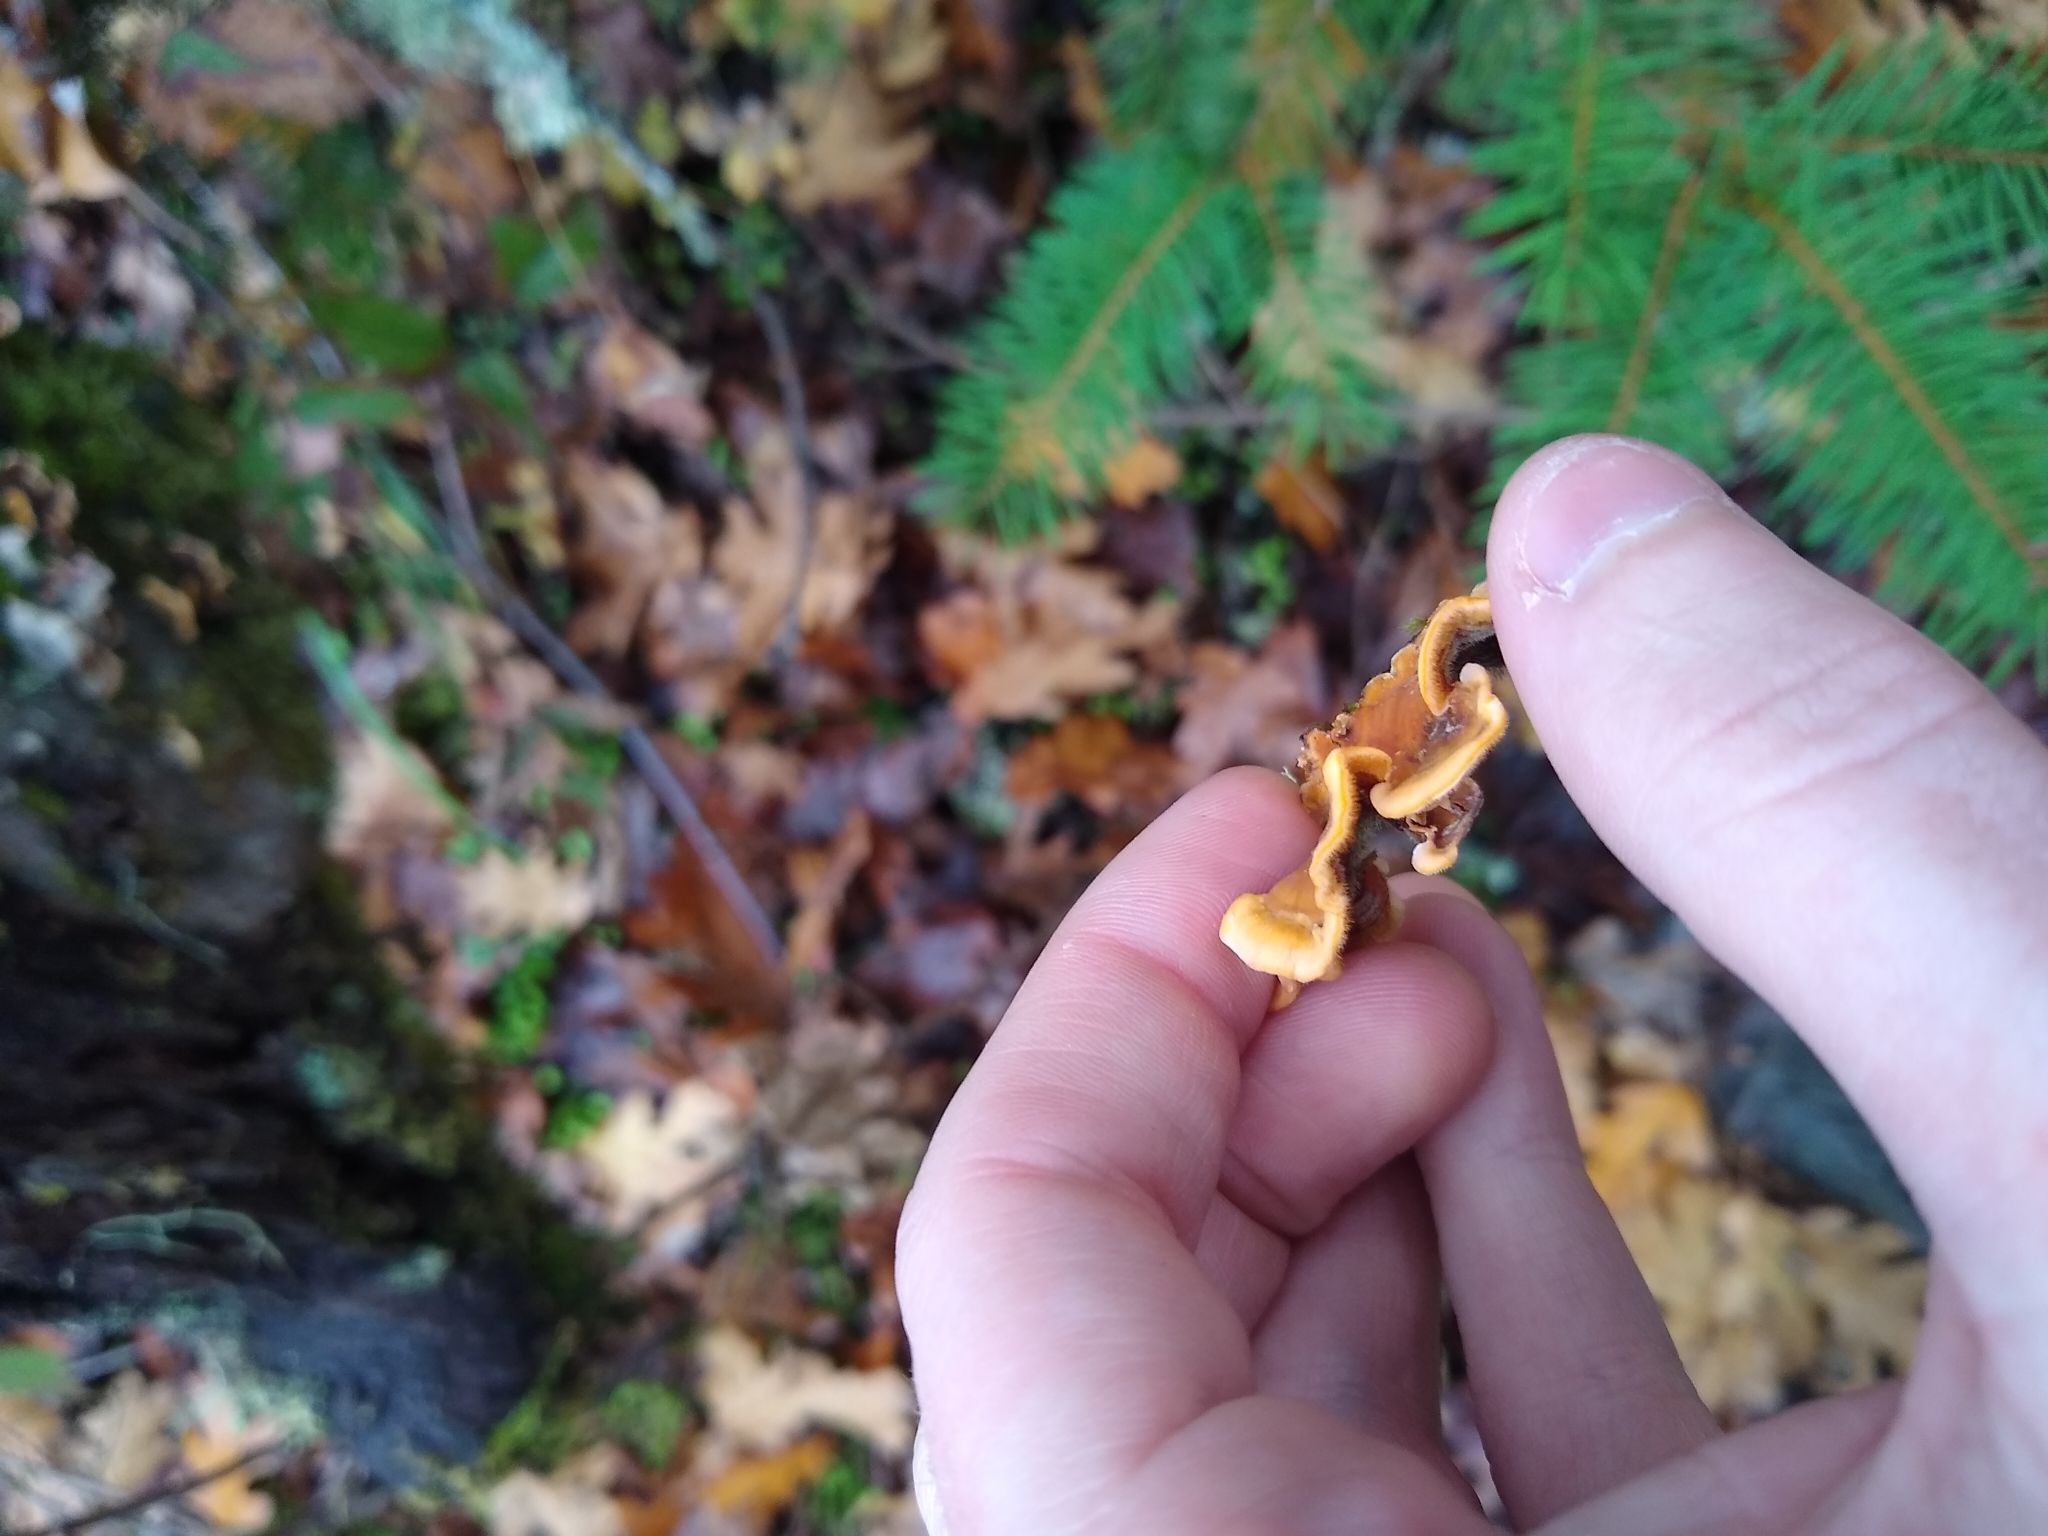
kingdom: Fungi
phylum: Basidiomycota
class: Agaricomycetes
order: Russulales
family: Stereaceae
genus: Stereum
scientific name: Stereum hirsutum
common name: Hairy curtain crust
